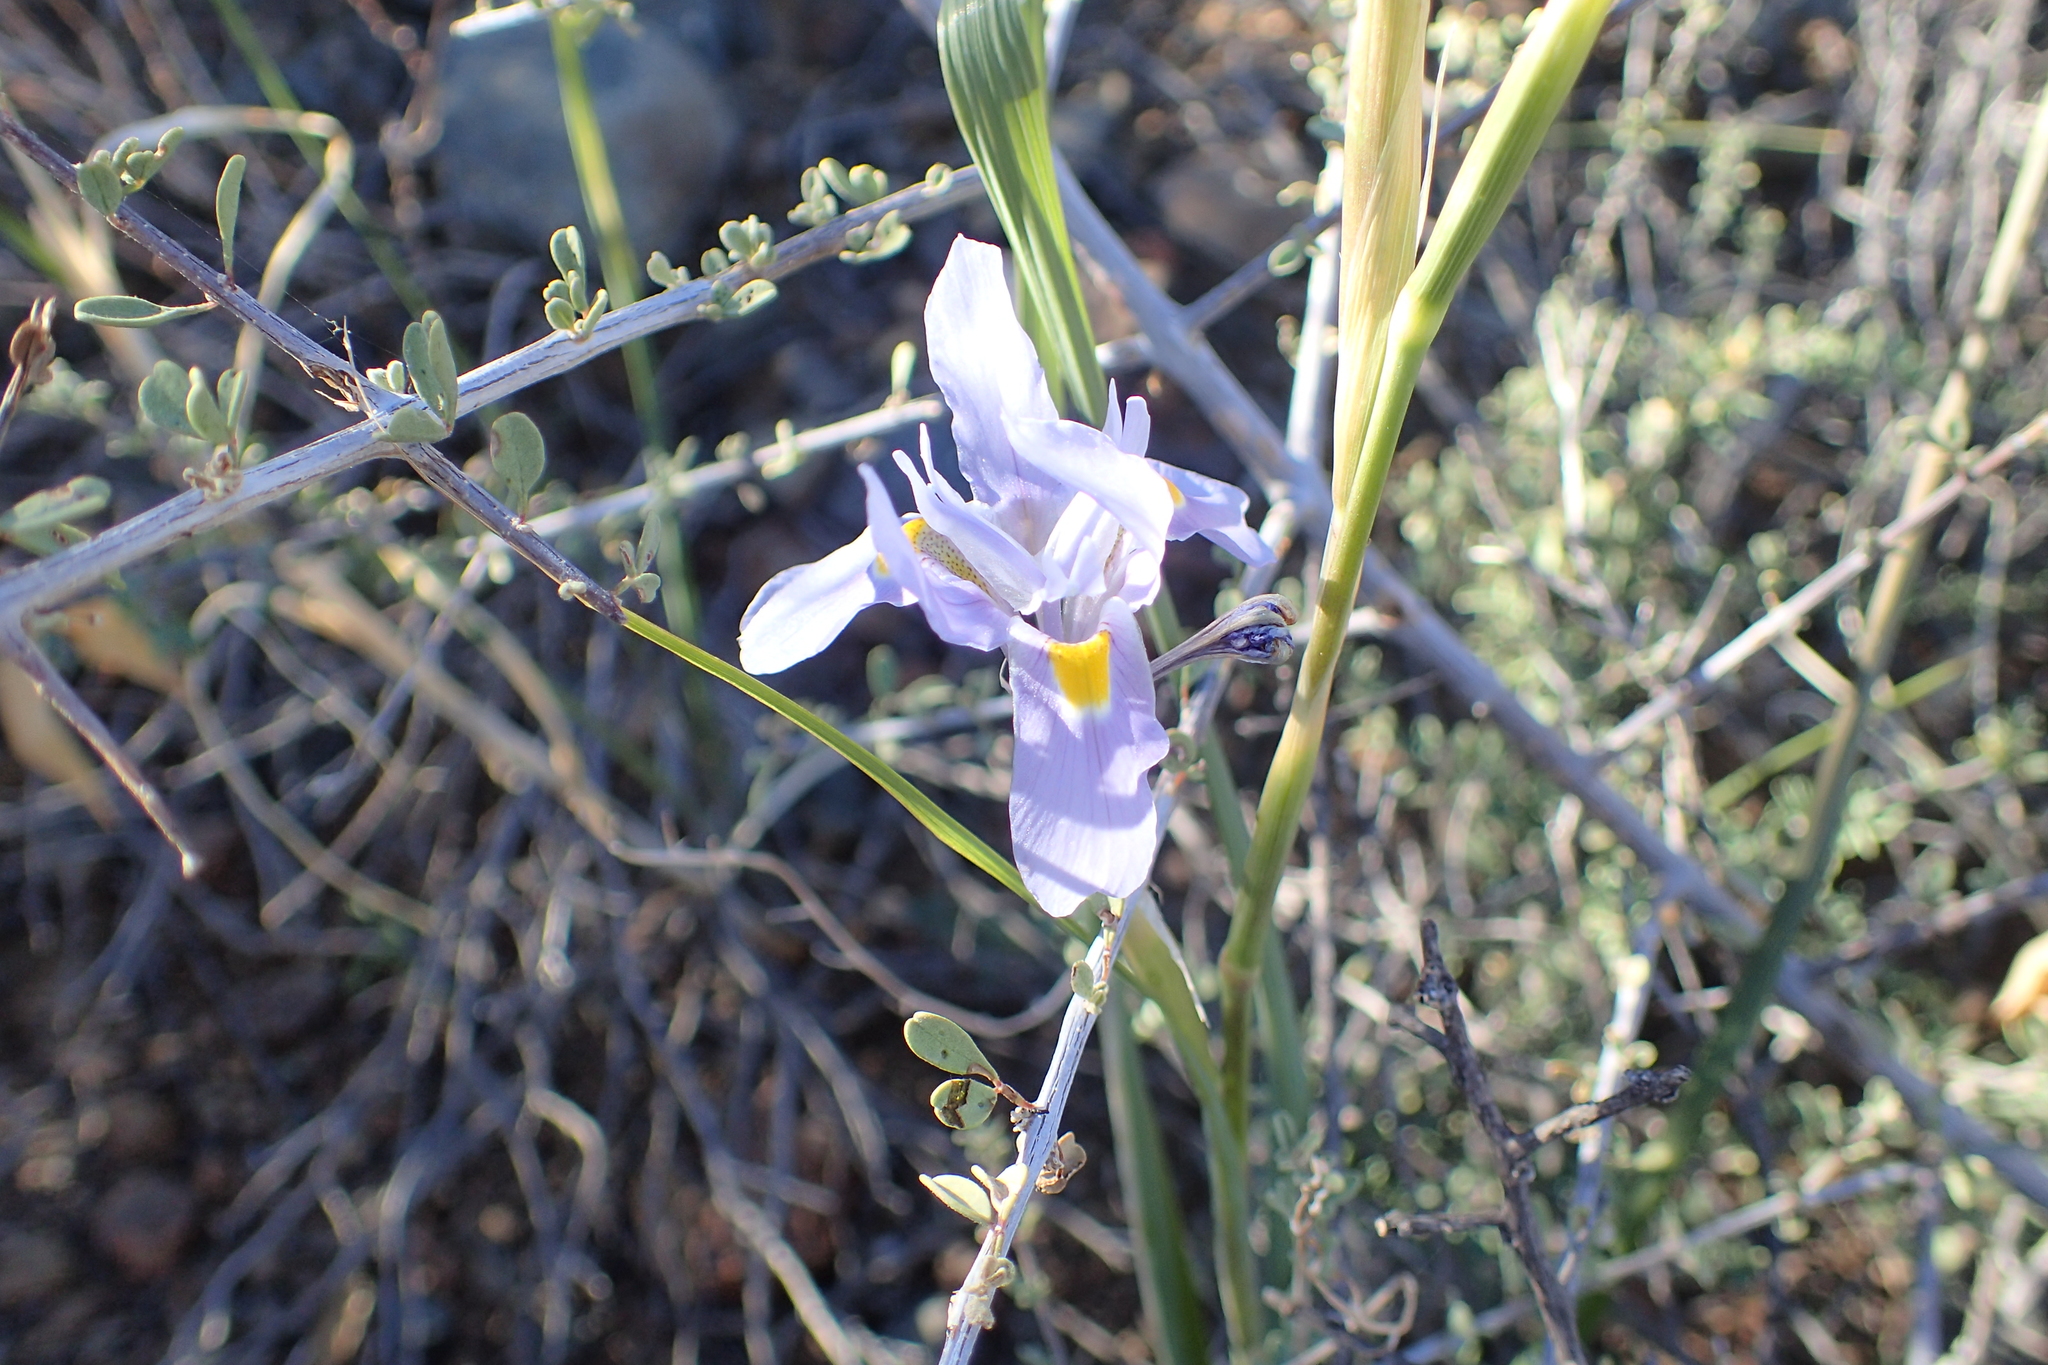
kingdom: Plantae
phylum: Tracheophyta
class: Liliopsida
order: Asparagales
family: Iridaceae
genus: Moraea
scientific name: Moraea polystachya
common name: Blue-tulip
